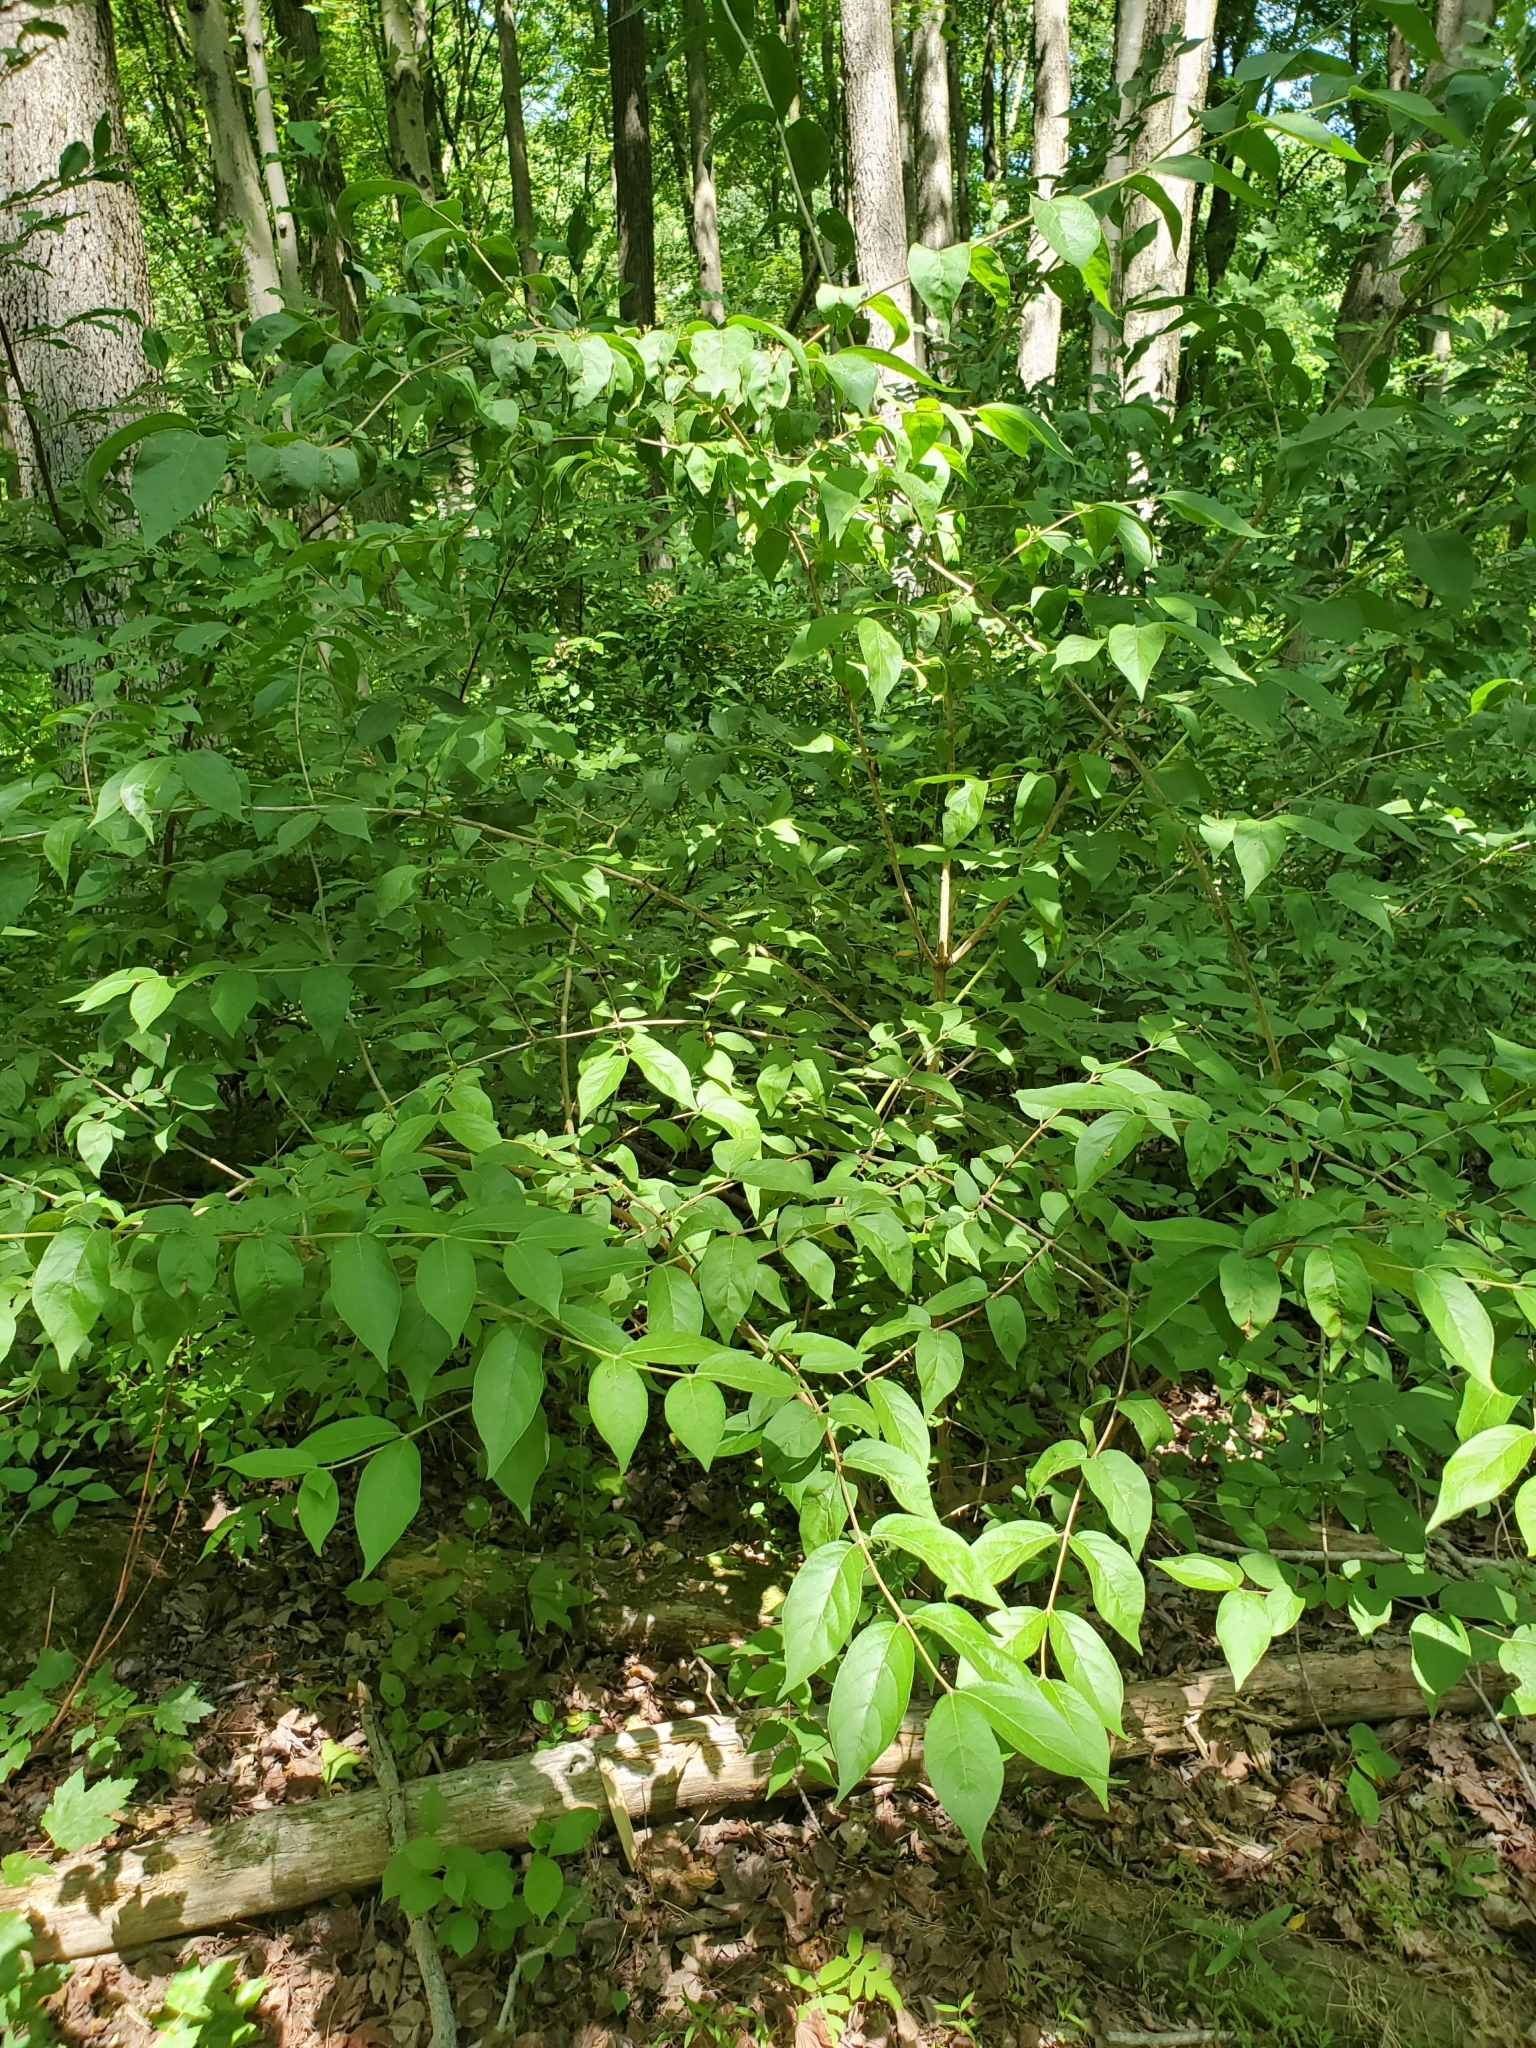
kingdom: Plantae
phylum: Tracheophyta
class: Magnoliopsida
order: Dipsacales
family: Caprifoliaceae
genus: Lonicera
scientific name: Lonicera maackii
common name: Amur honeysuckle
